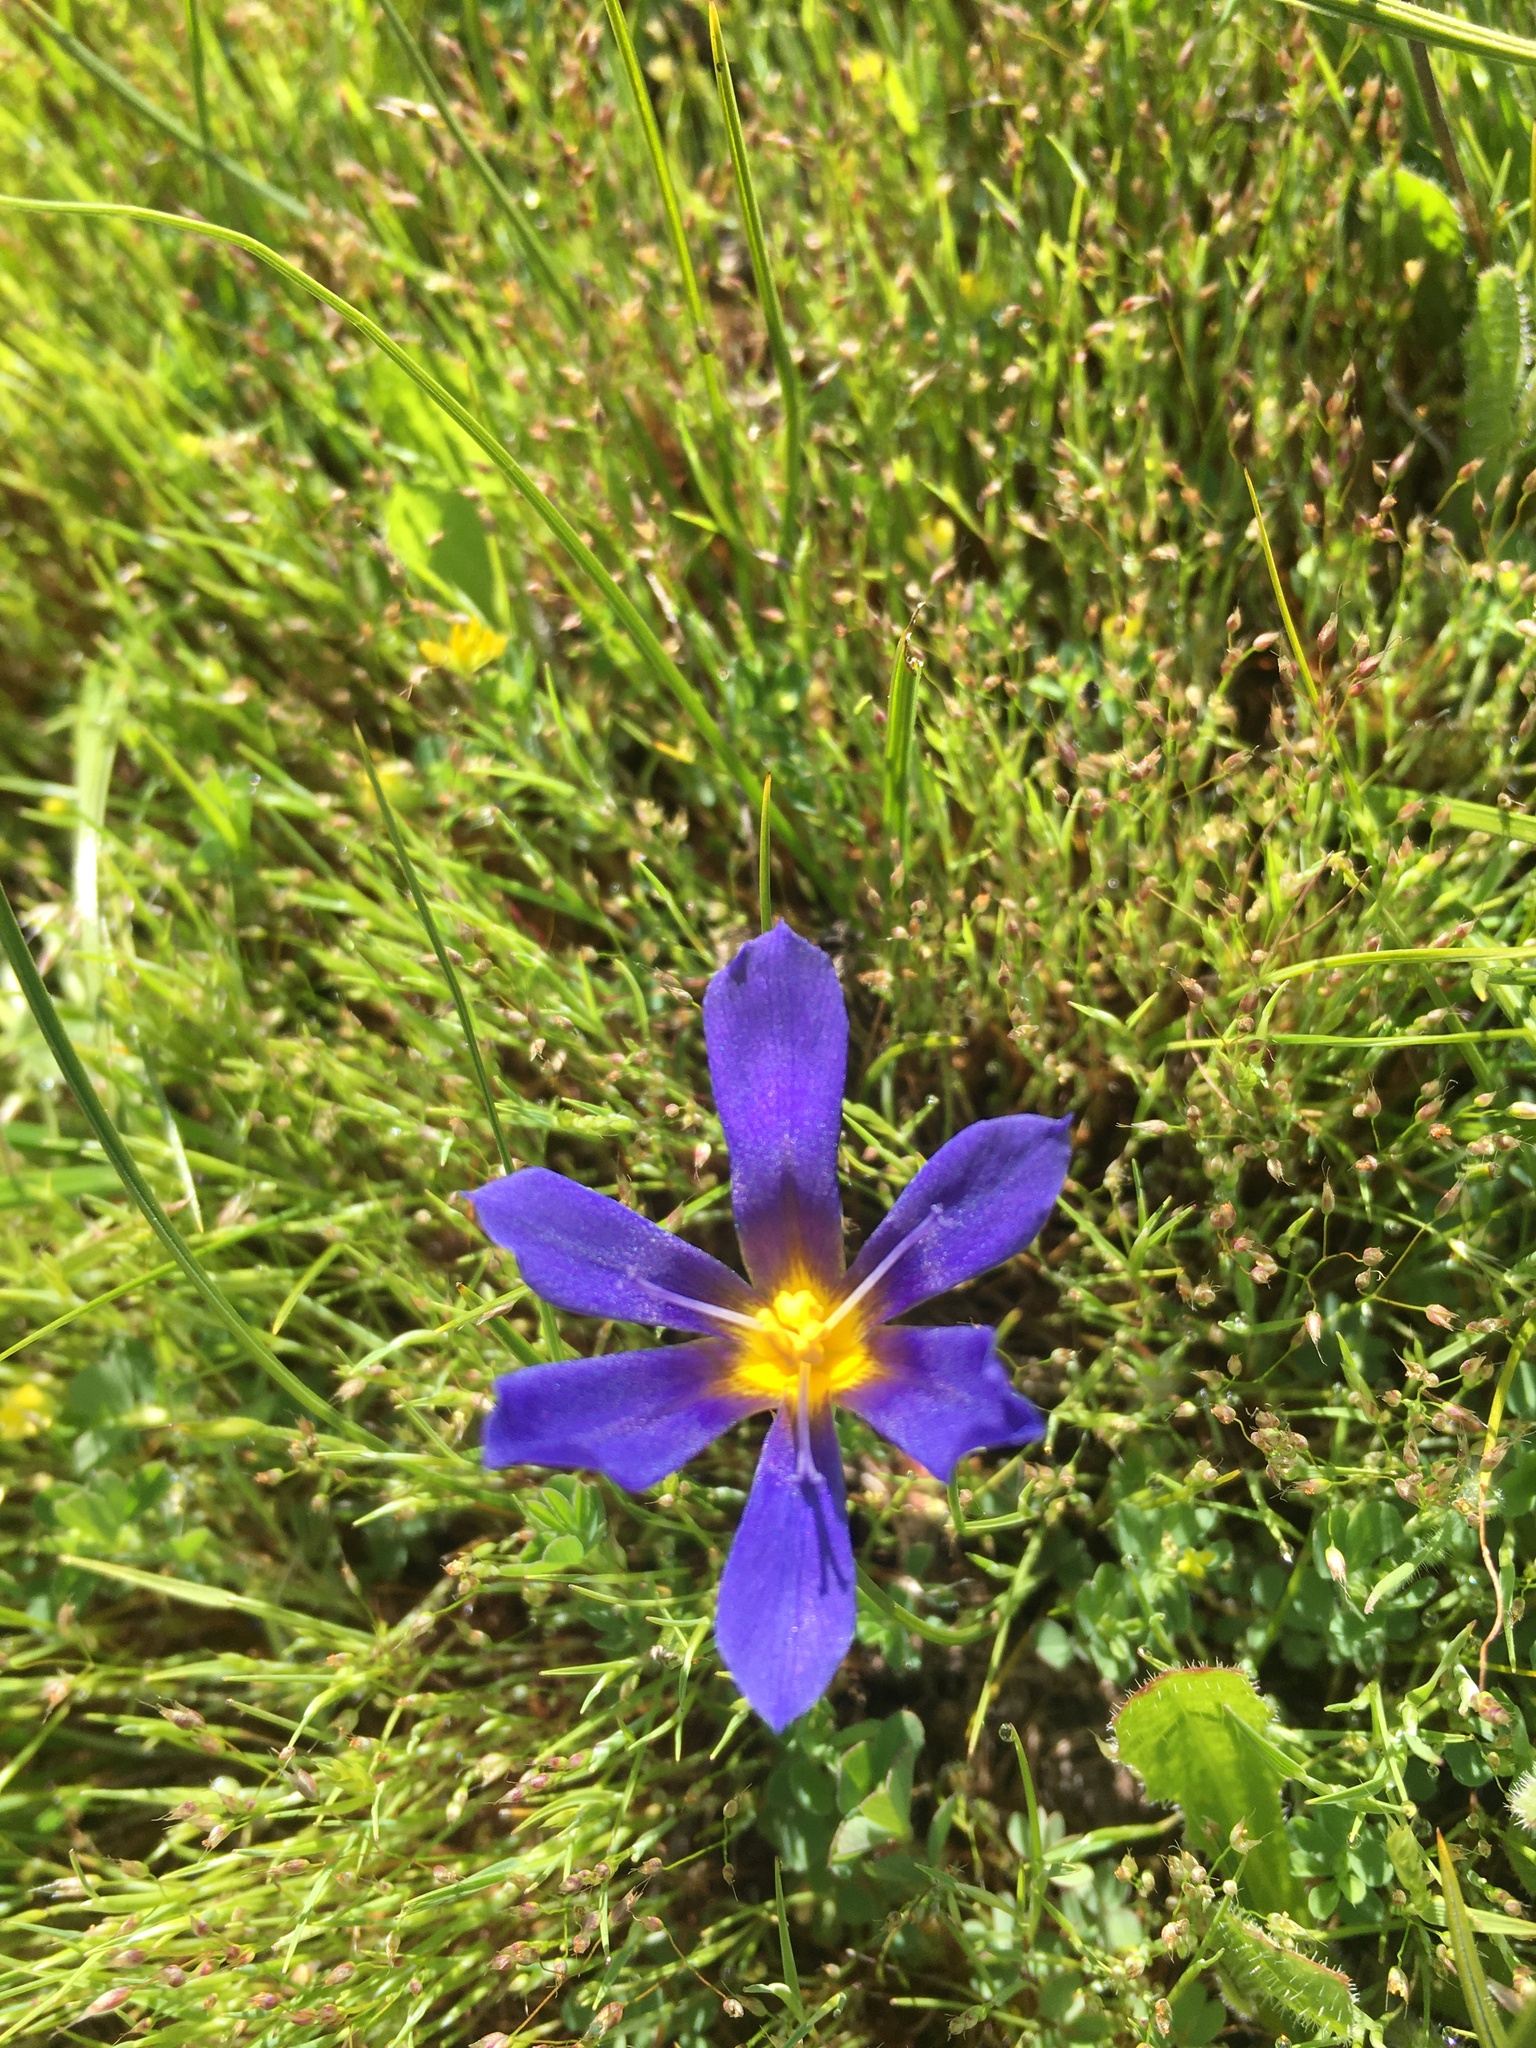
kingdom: Plantae
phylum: Tracheophyta
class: Liliopsida
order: Asparagales
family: Iridaceae
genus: Calydorea
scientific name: Calydorea xiphioides
